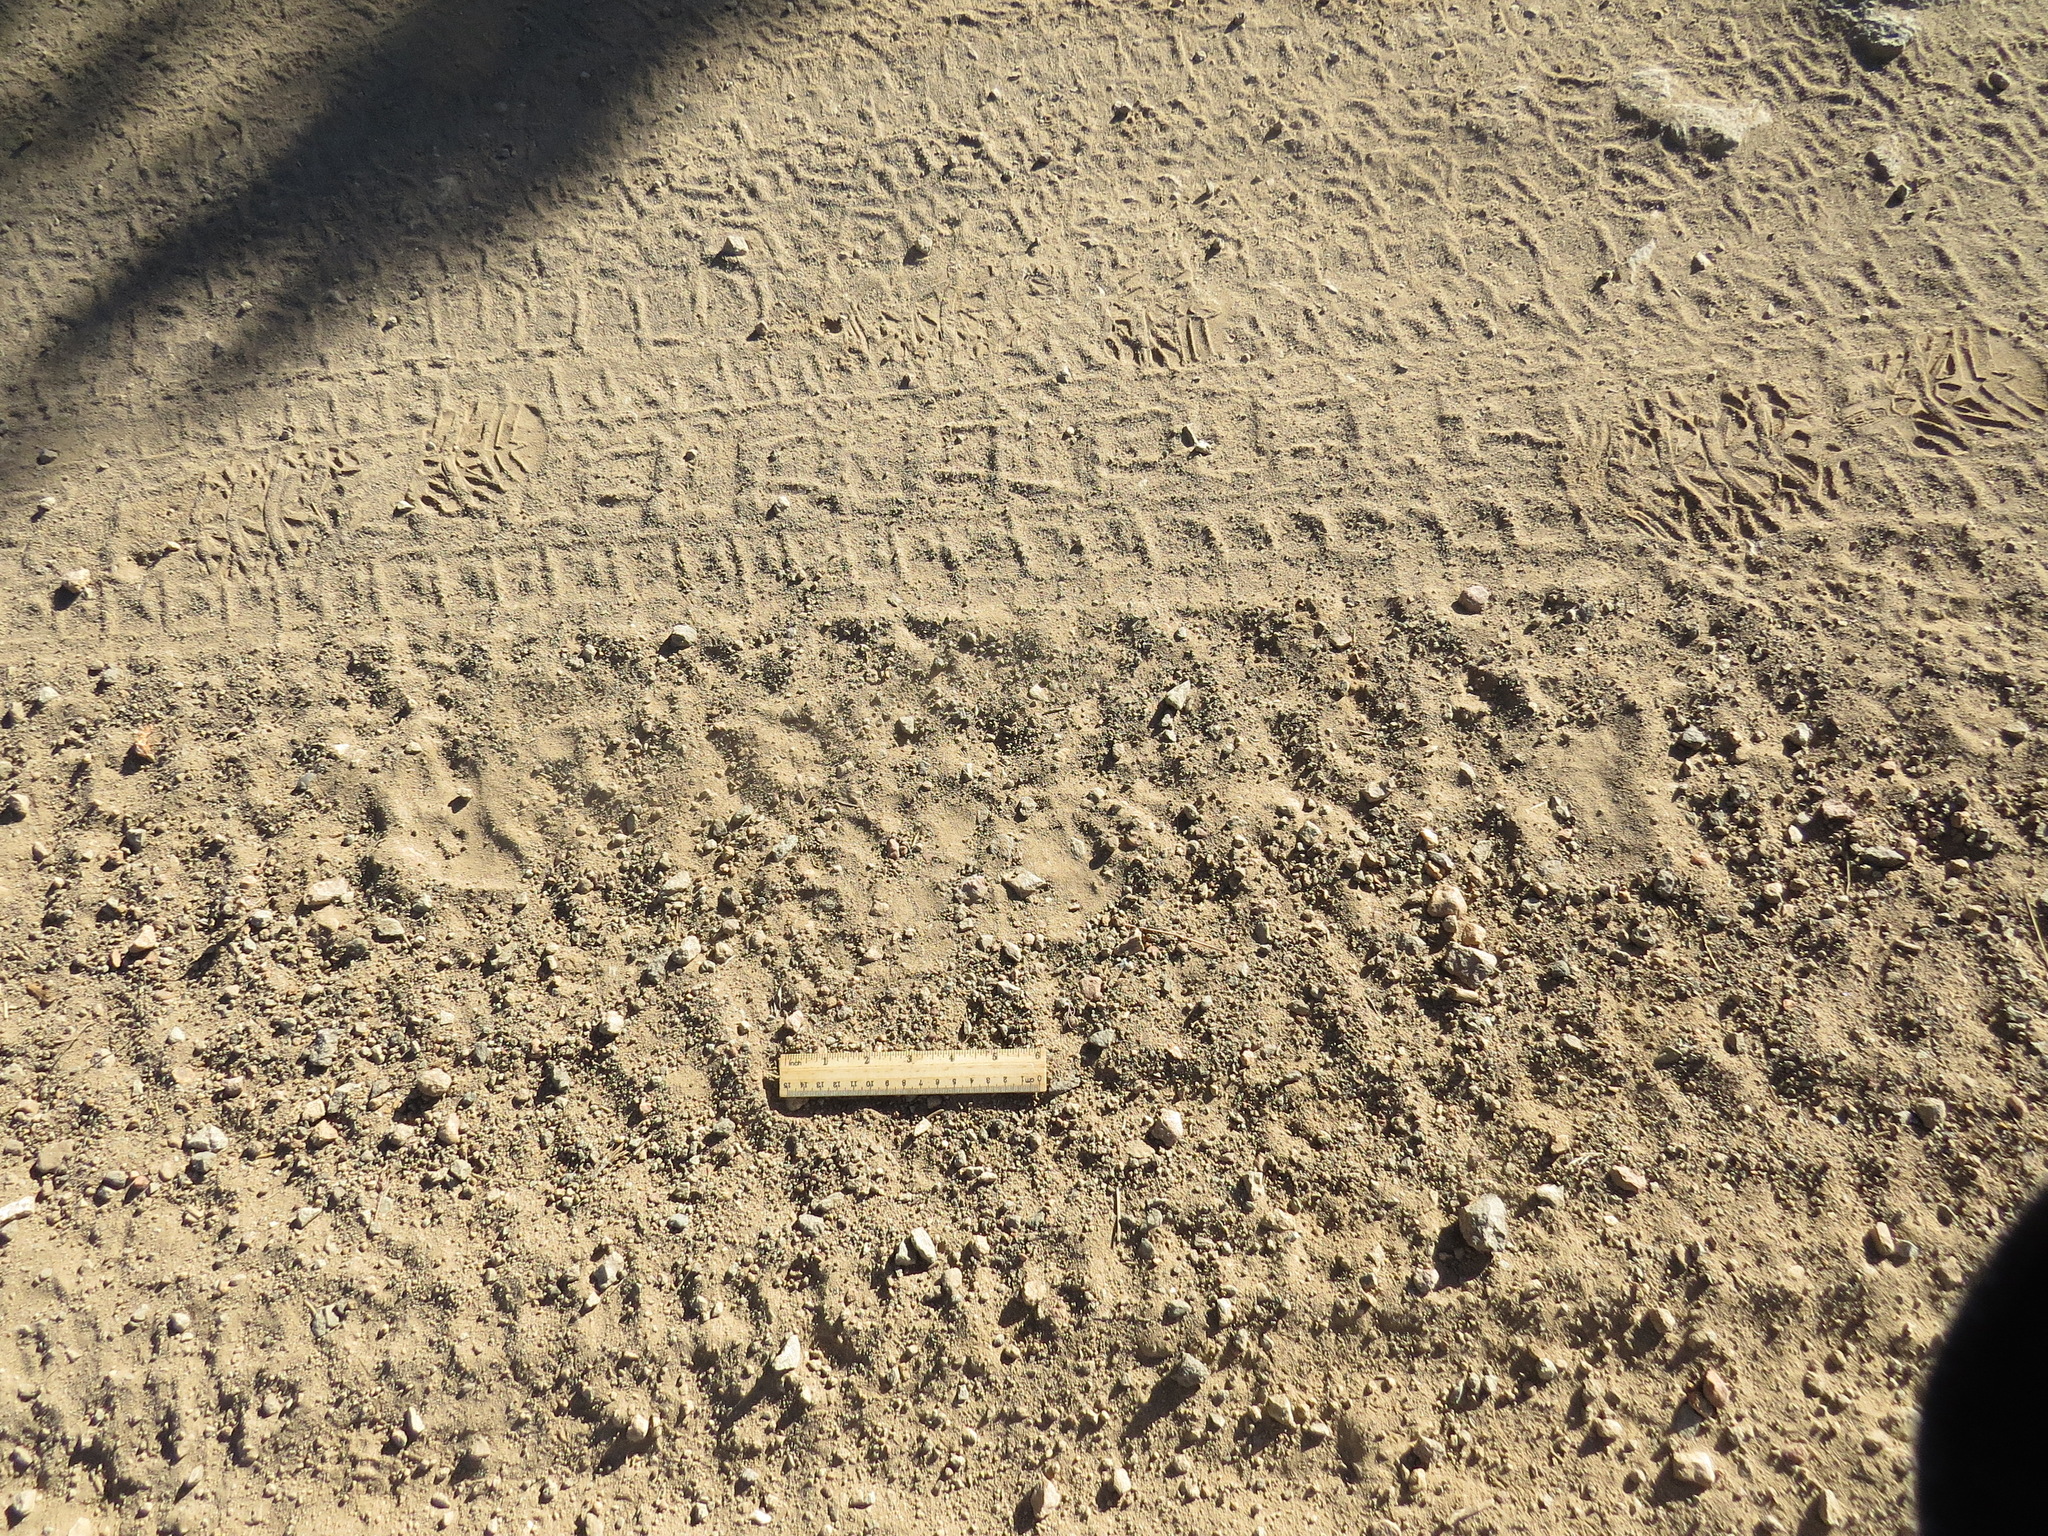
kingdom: Animalia
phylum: Chordata
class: Mammalia
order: Carnivora
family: Ursidae
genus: Ursus
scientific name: Ursus americanus
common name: American black bear
